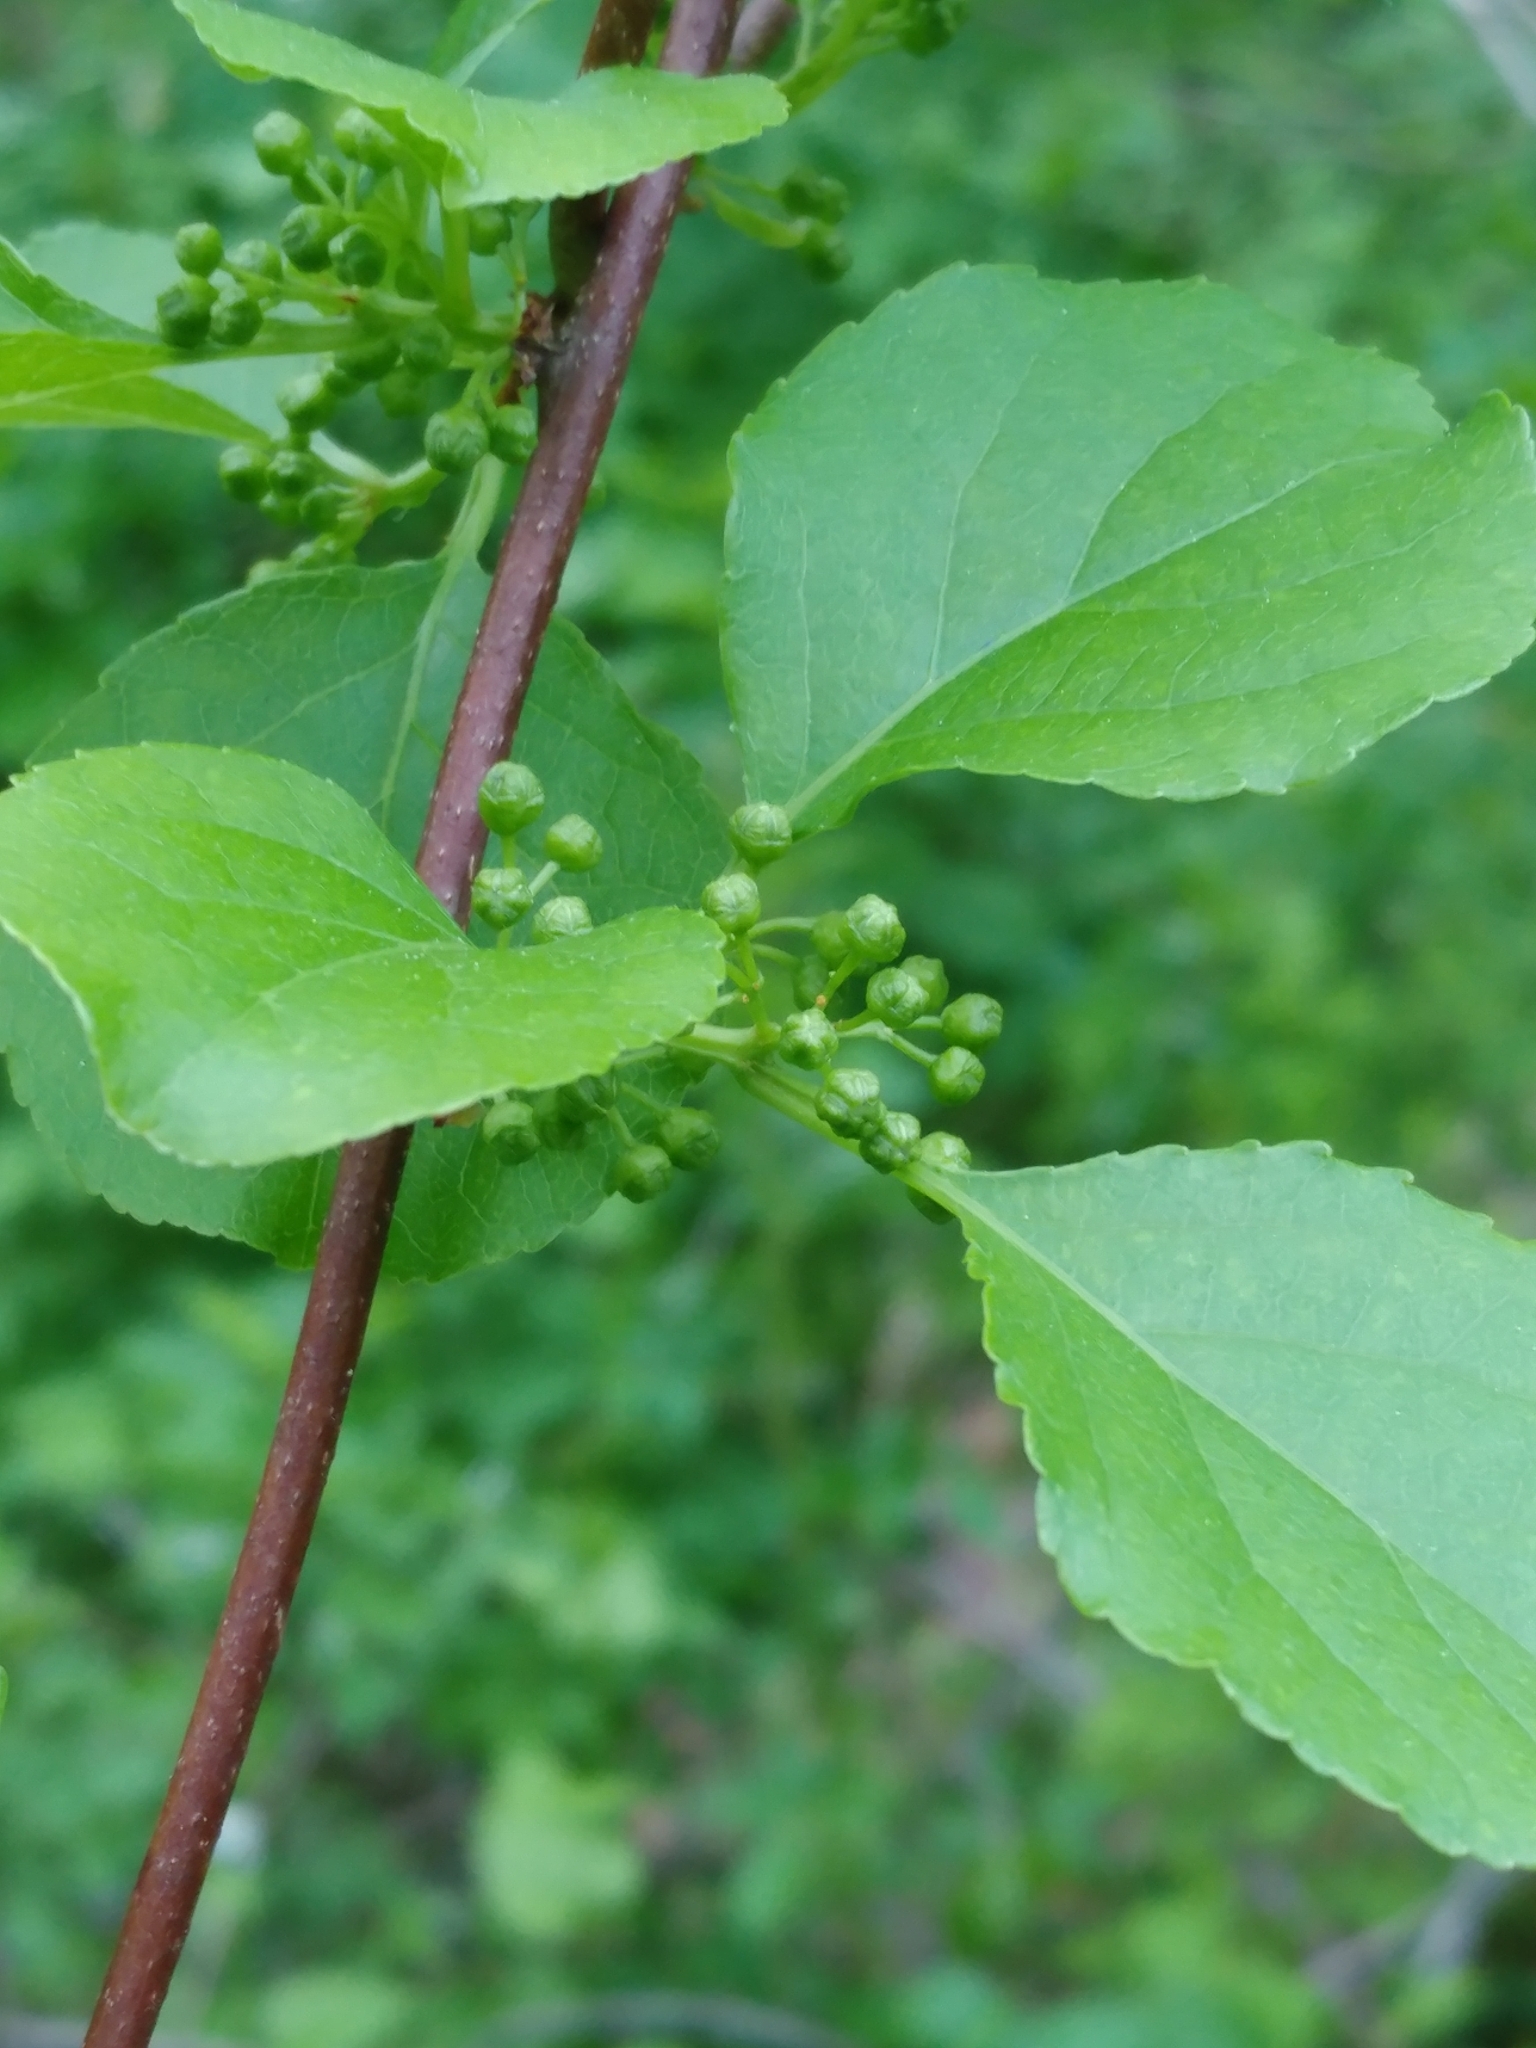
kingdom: Plantae
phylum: Tracheophyta
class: Magnoliopsida
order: Celastrales
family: Celastraceae
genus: Celastrus
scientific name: Celastrus orbiculatus
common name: Oriental bittersweet
